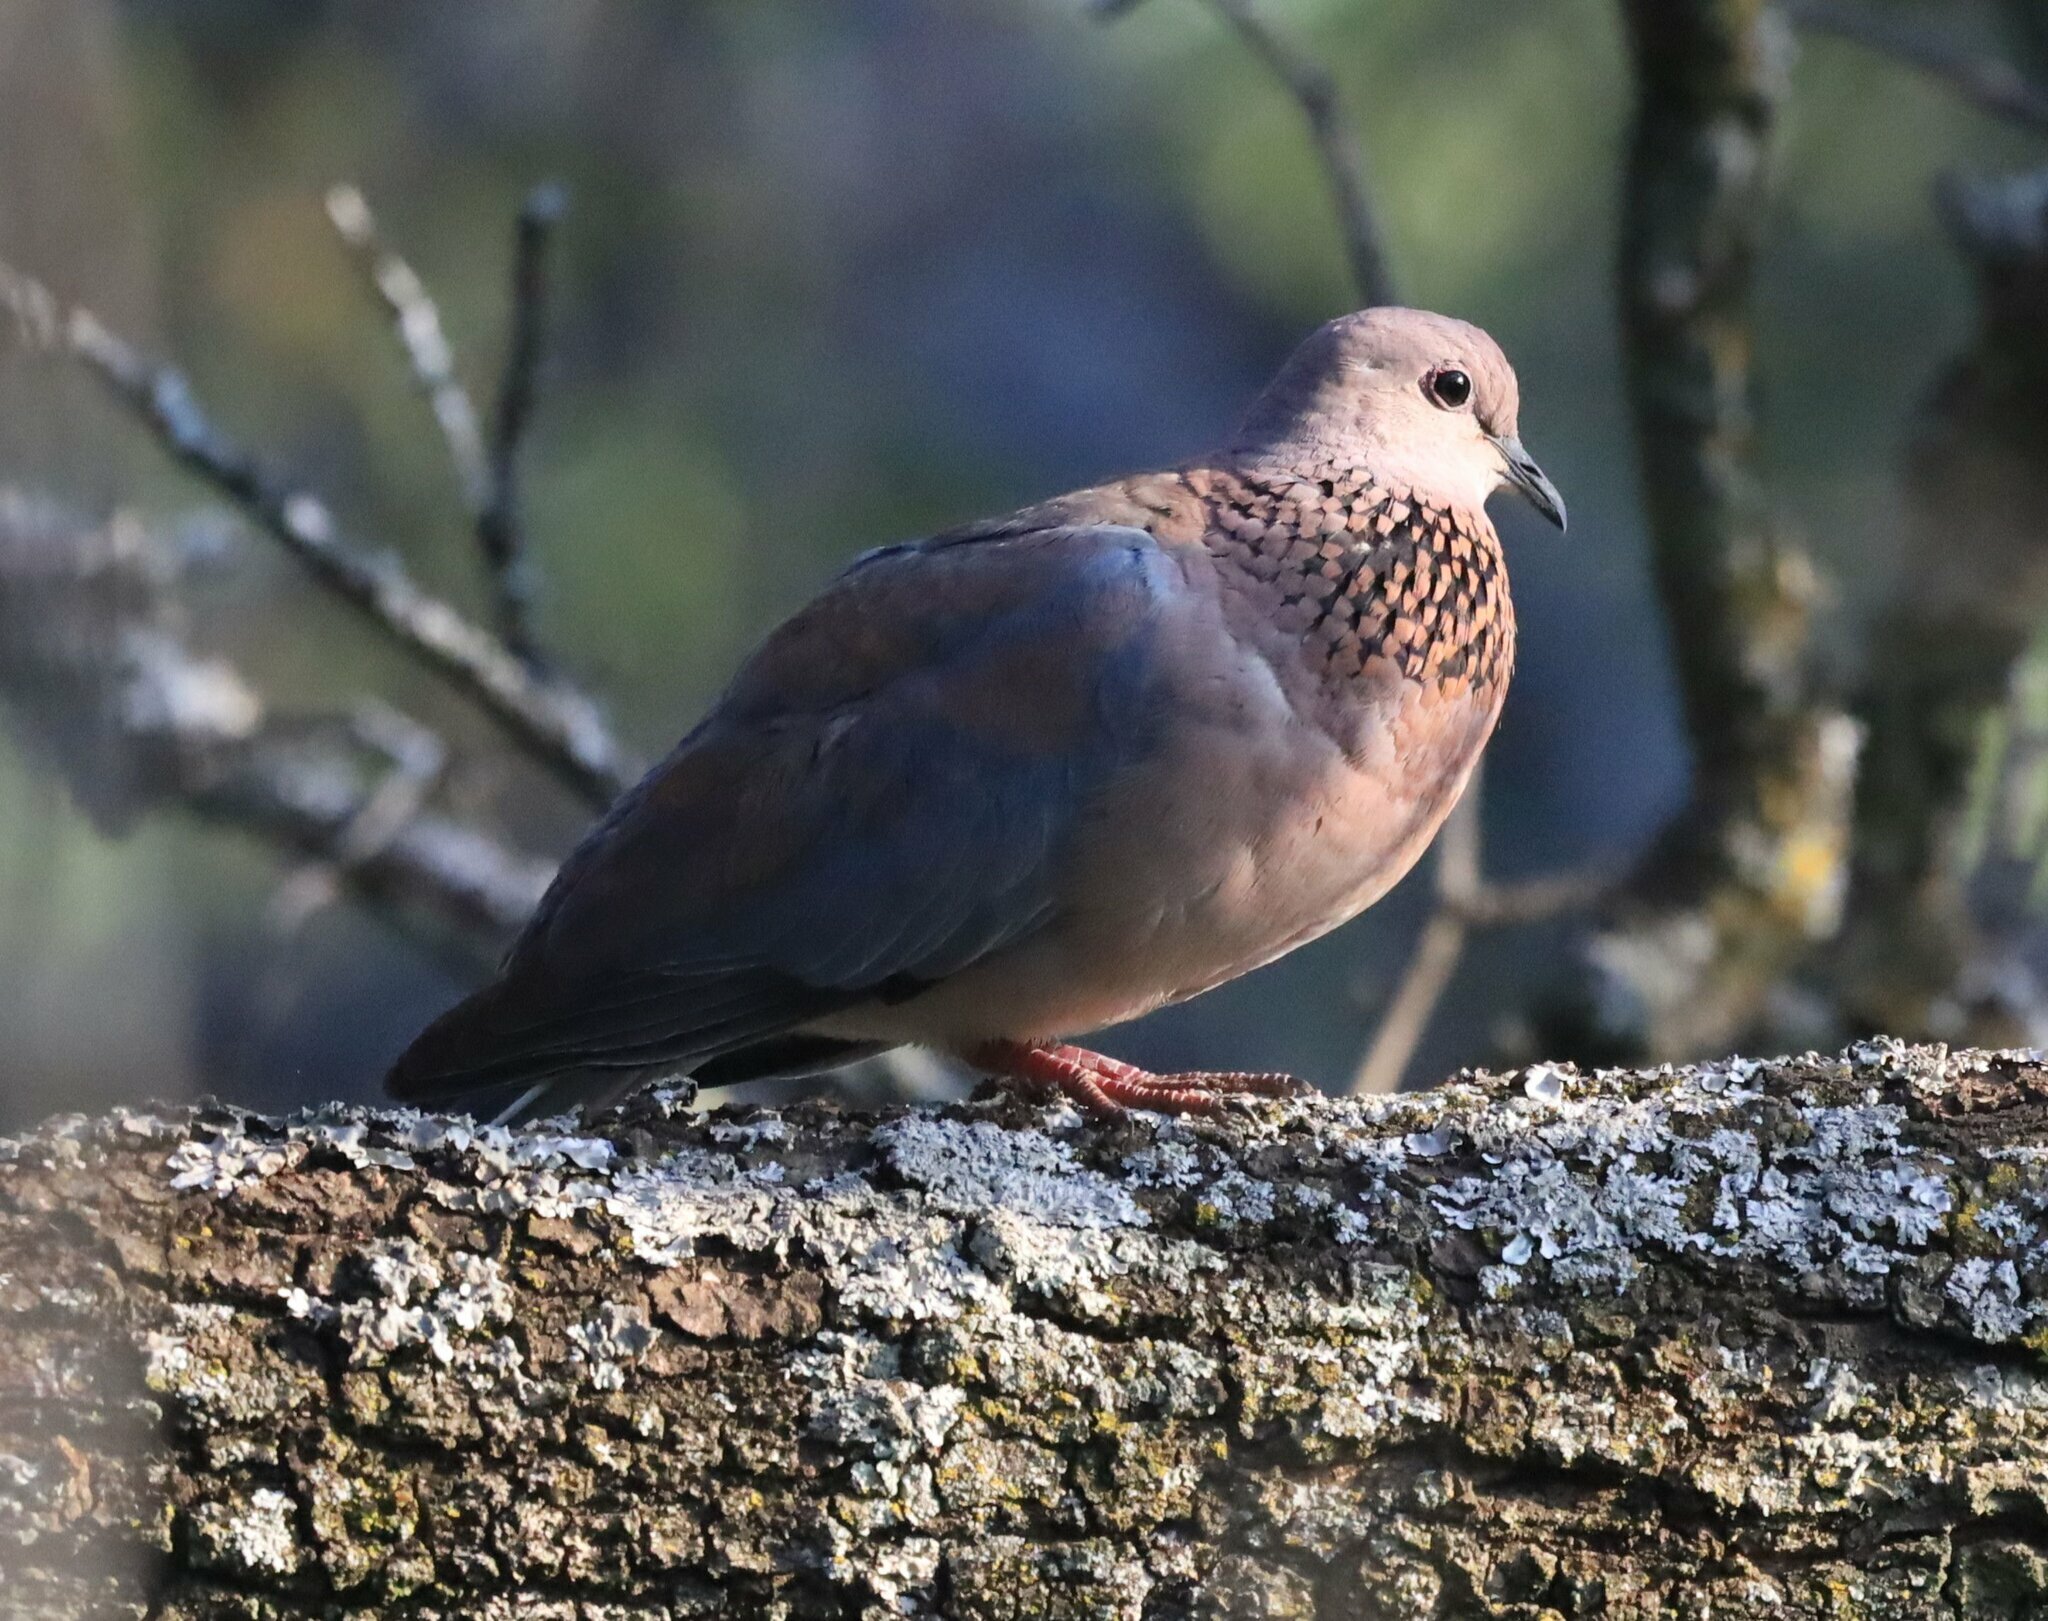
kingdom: Animalia
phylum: Chordata
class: Aves
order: Columbiformes
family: Columbidae
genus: Spilopelia
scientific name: Spilopelia senegalensis
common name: Laughing dove
